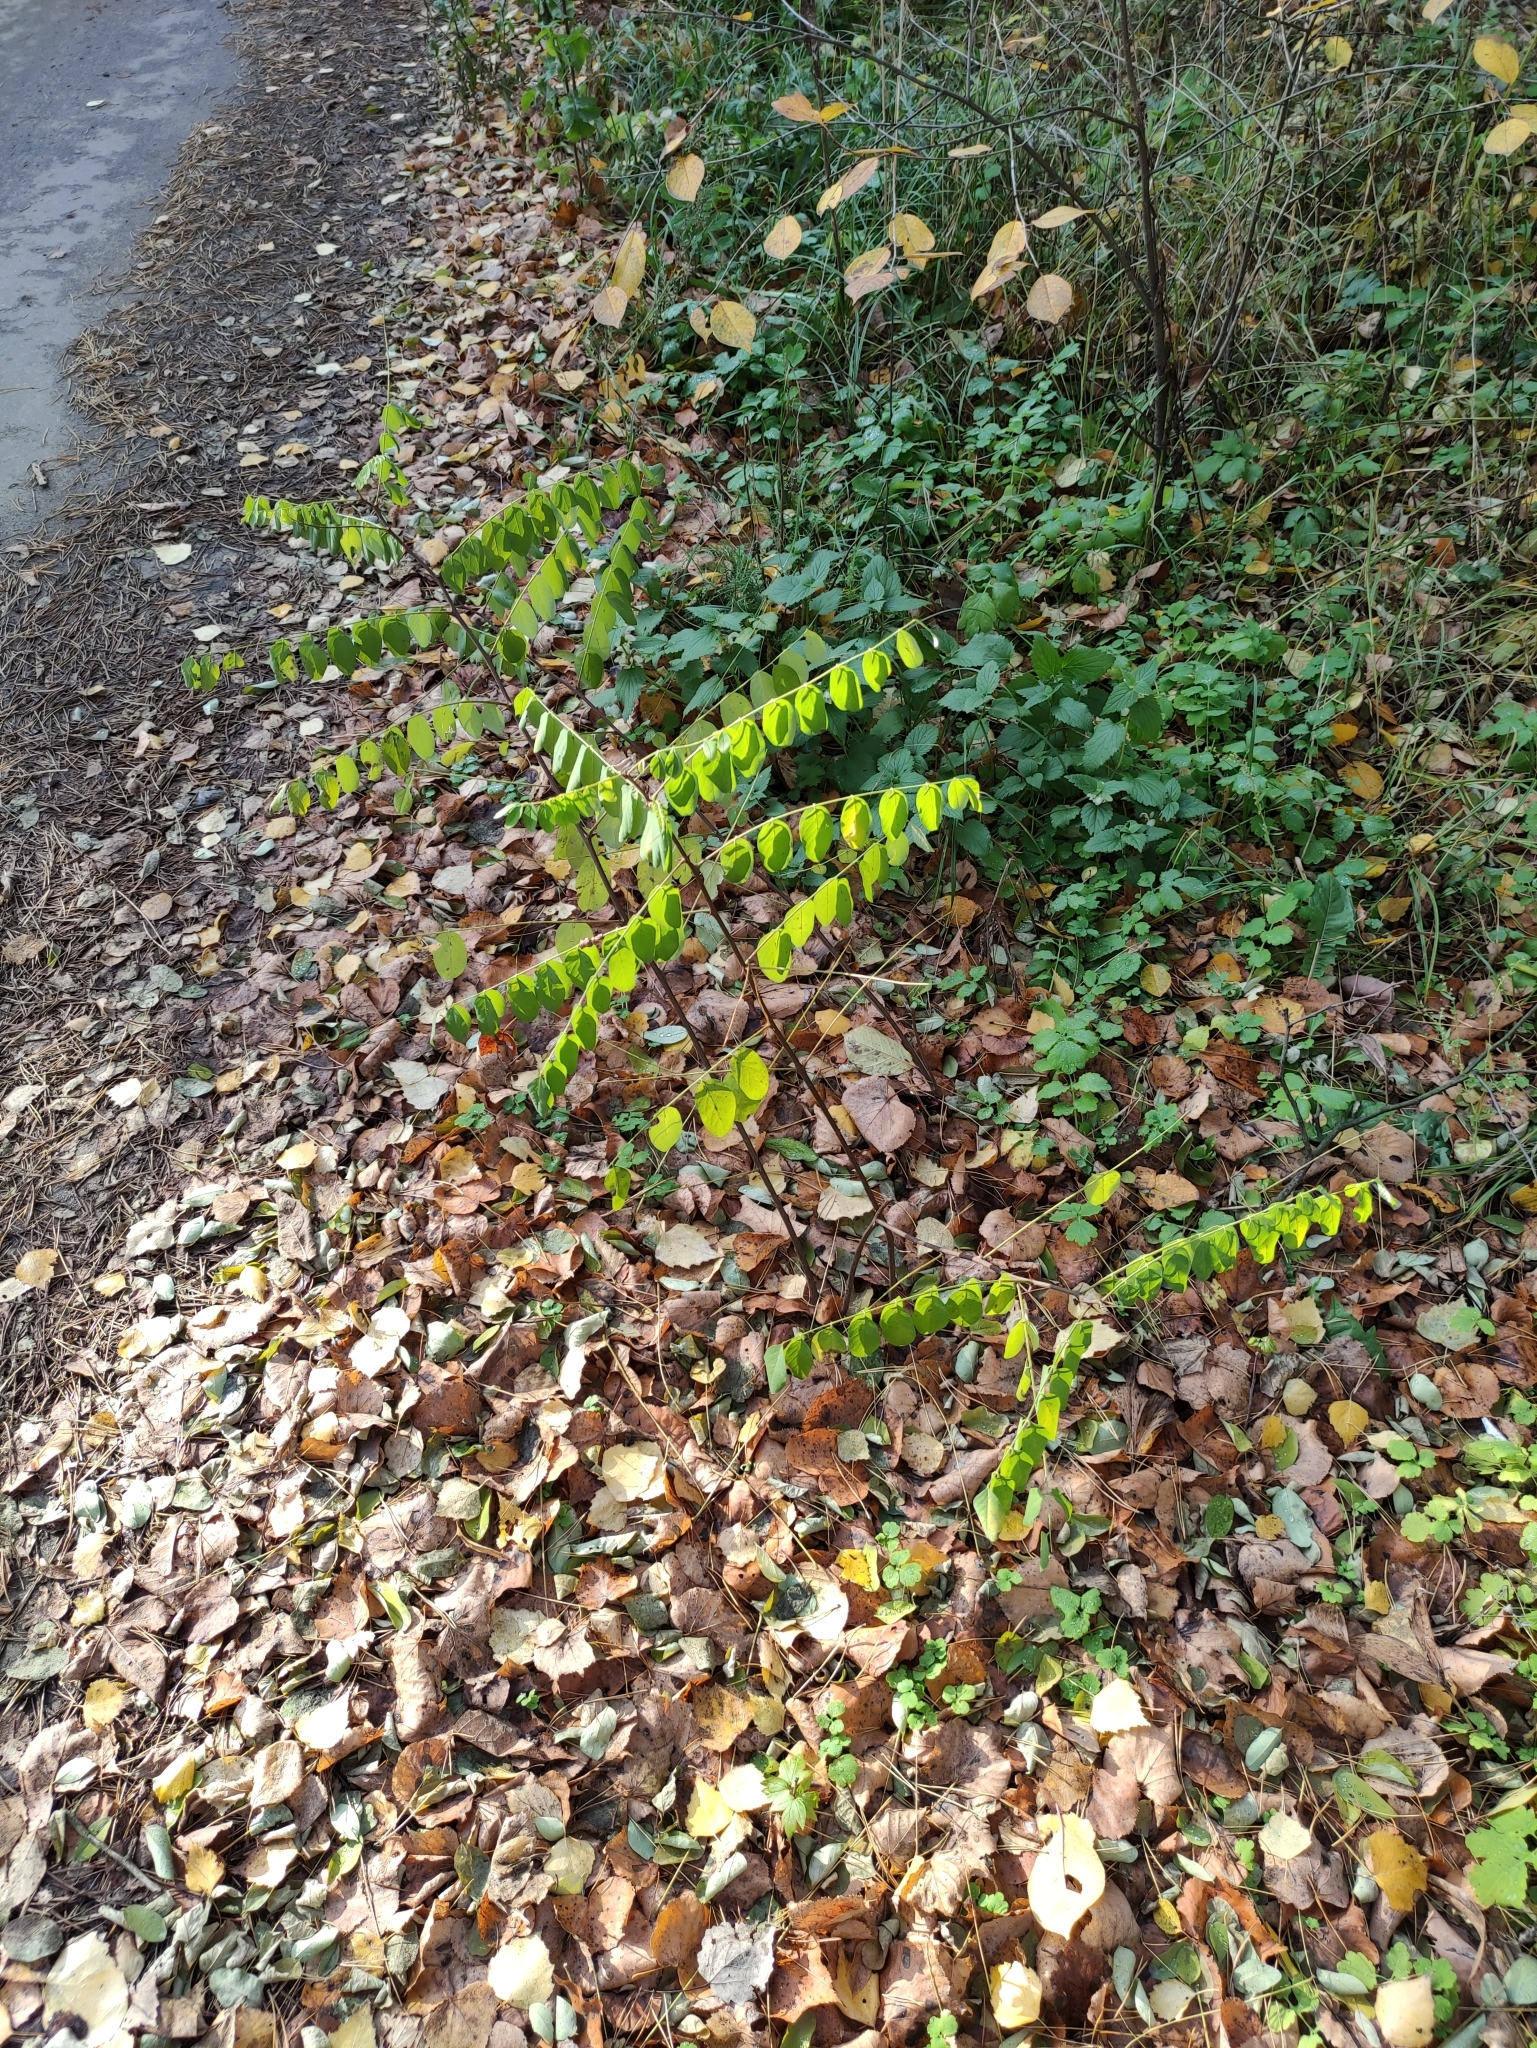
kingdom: Plantae
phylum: Tracheophyta
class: Magnoliopsida
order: Fabales
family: Fabaceae
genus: Robinia
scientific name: Robinia pseudoacacia
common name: Black locust
